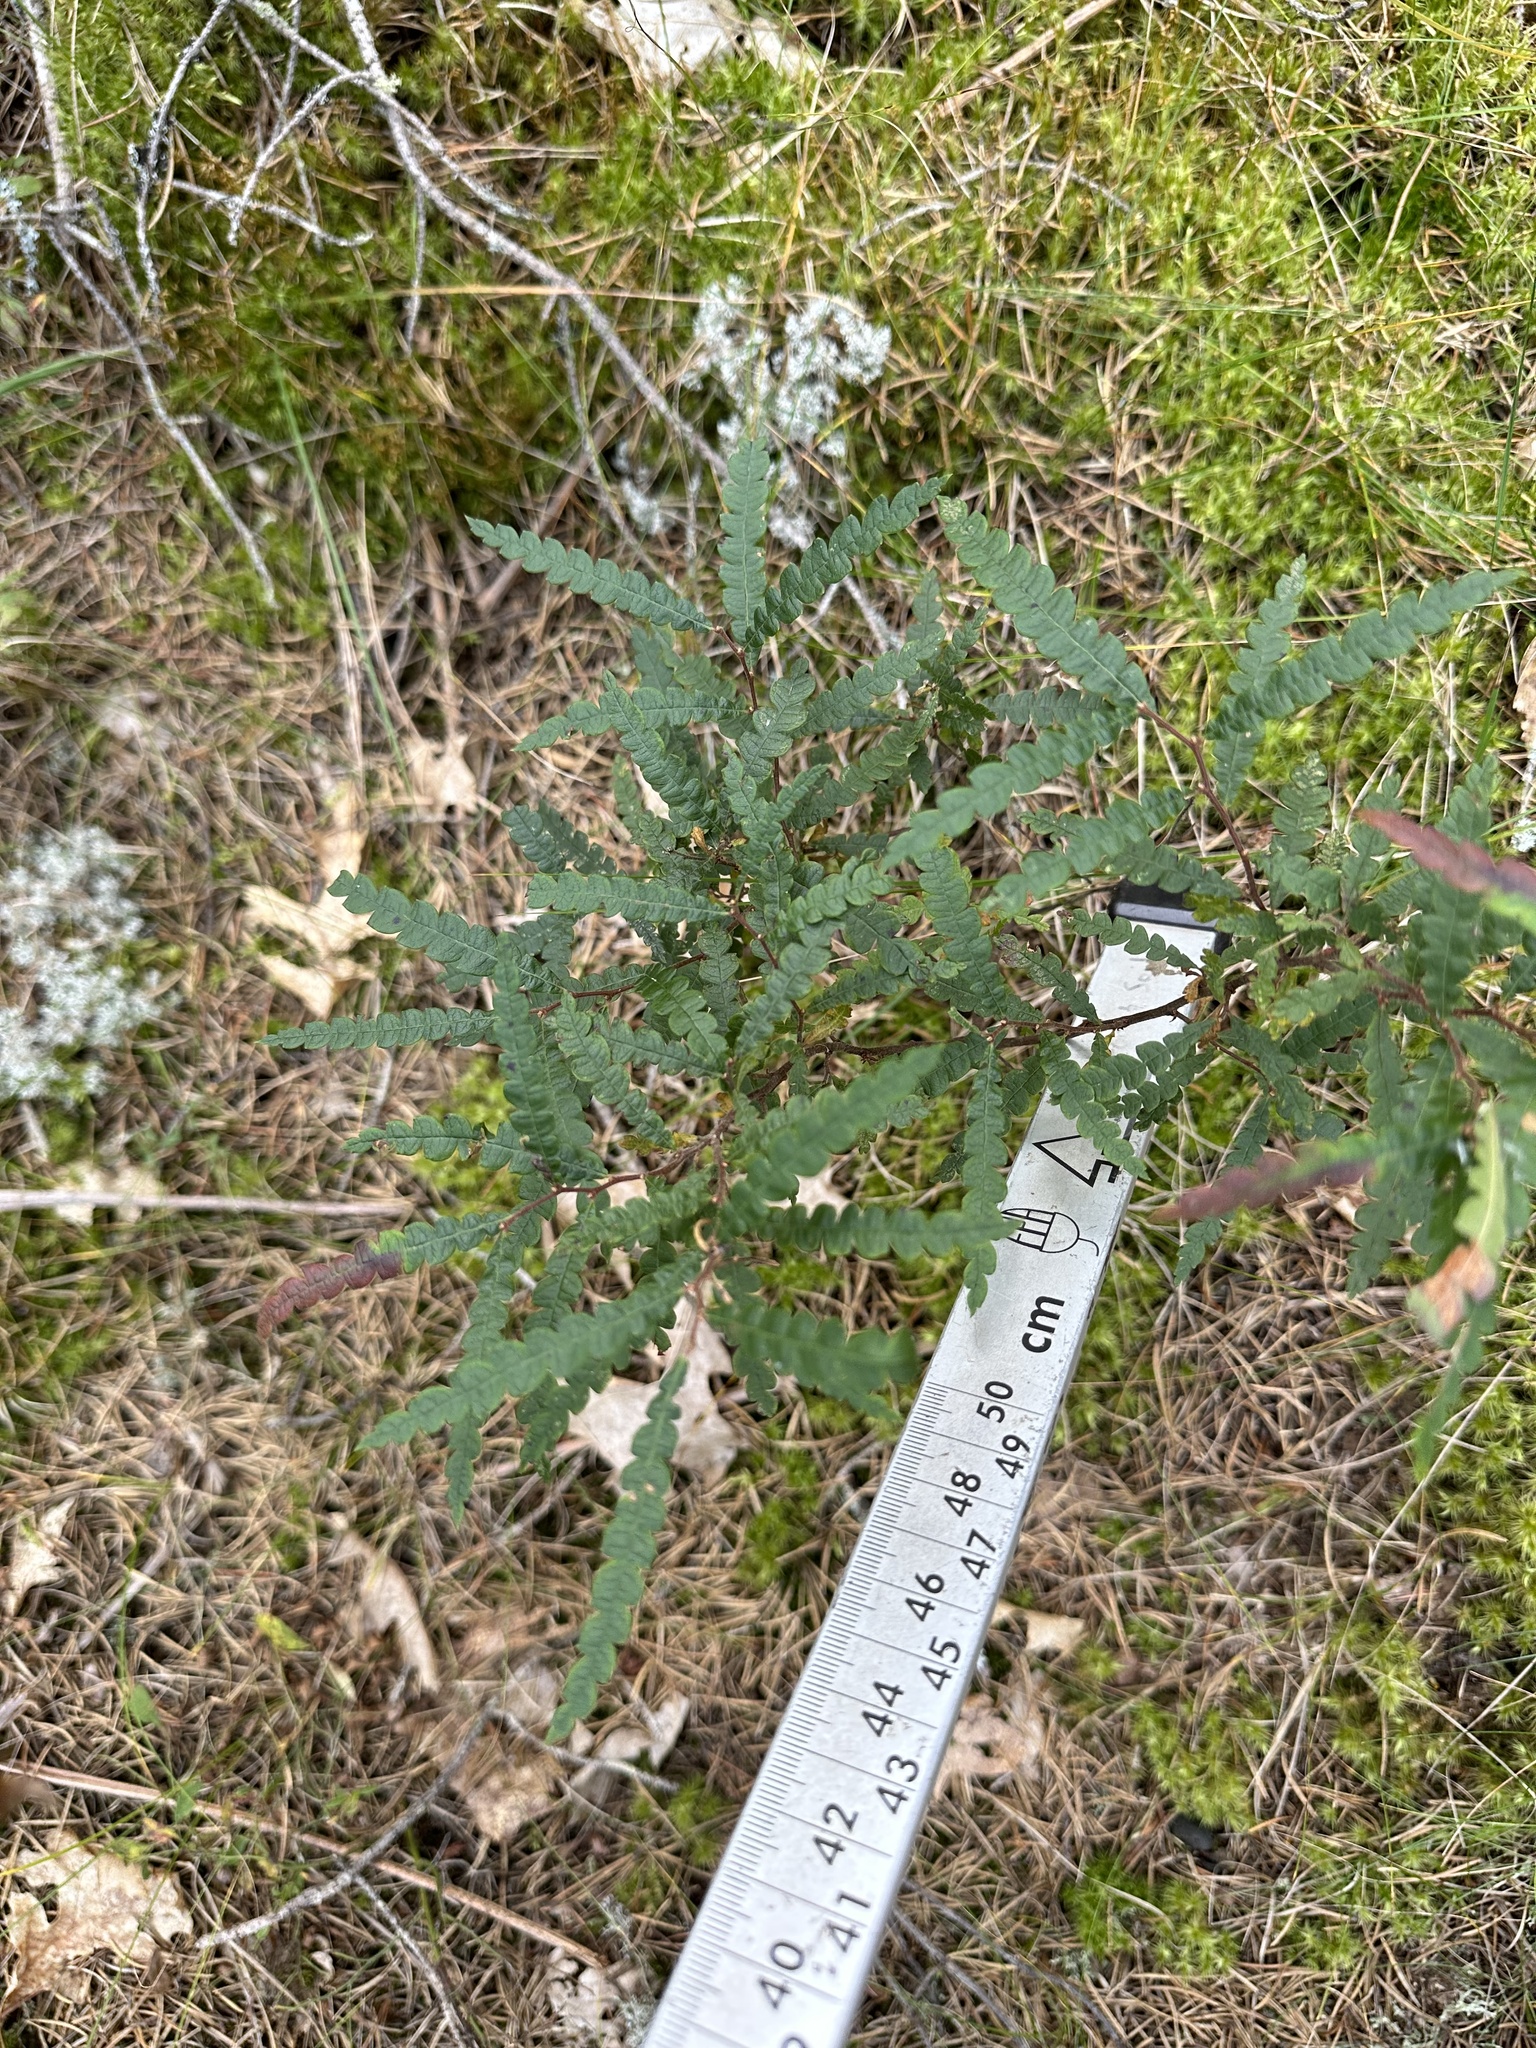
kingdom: Plantae
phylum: Tracheophyta
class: Magnoliopsida
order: Fagales
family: Myricaceae
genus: Comptonia
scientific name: Comptonia peregrina
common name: Sweet-fern
